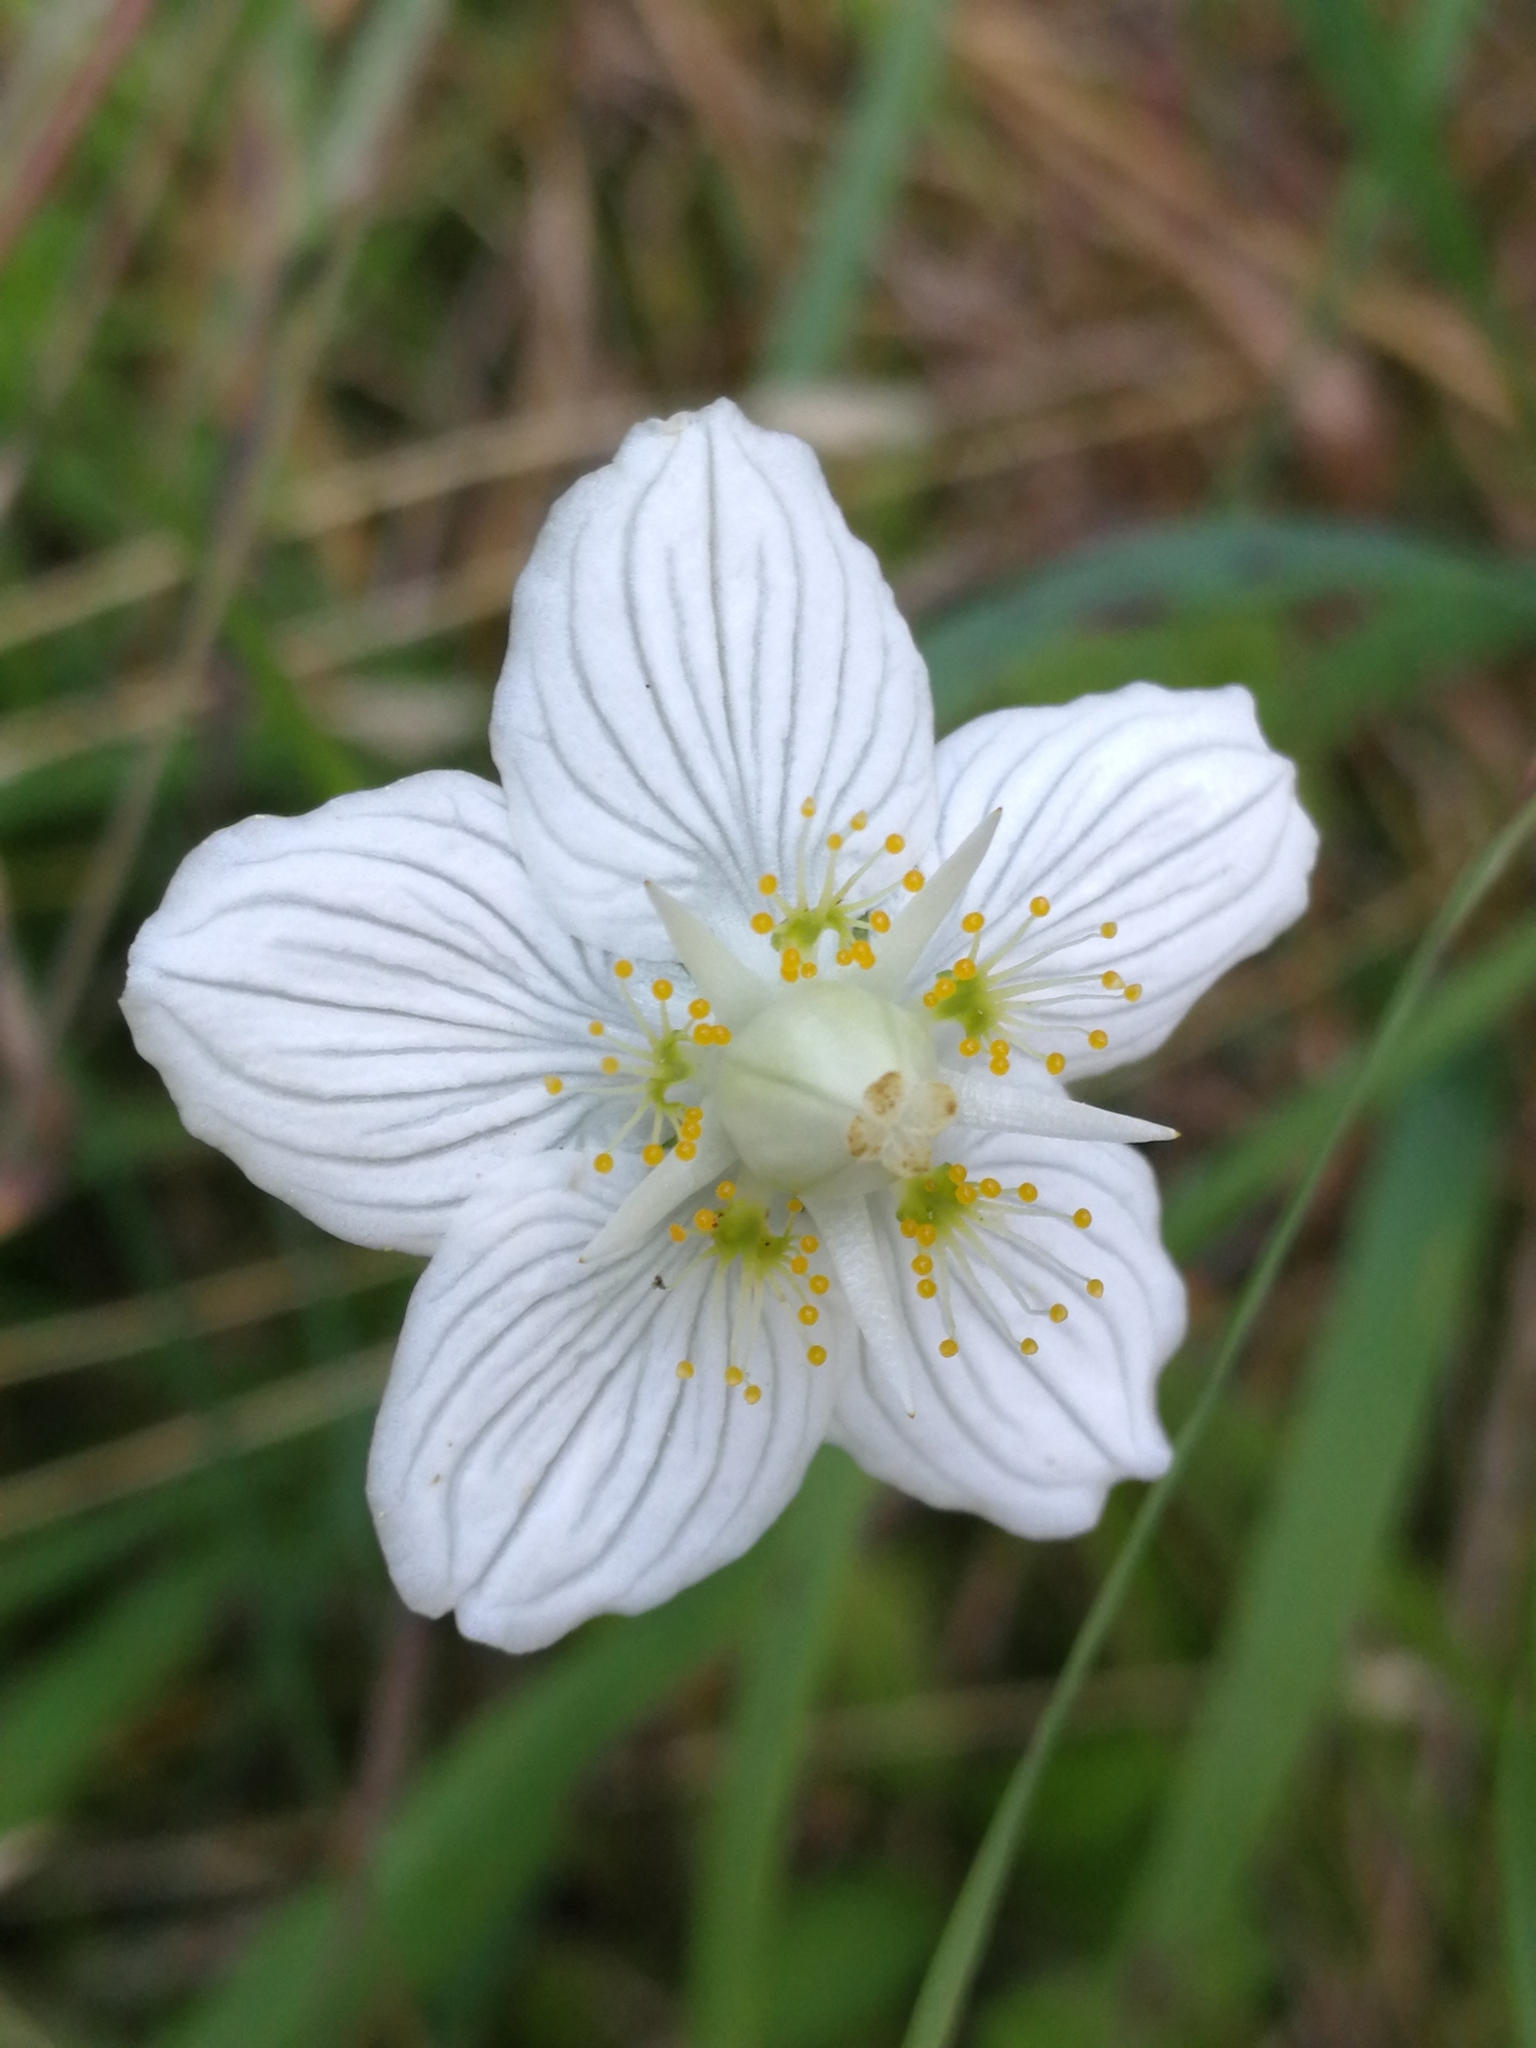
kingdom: Plantae
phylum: Tracheophyta
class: Magnoliopsida
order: Celastrales
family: Parnassiaceae
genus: Parnassia
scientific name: Parnassia palustris
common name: Grass-of-parnassus
